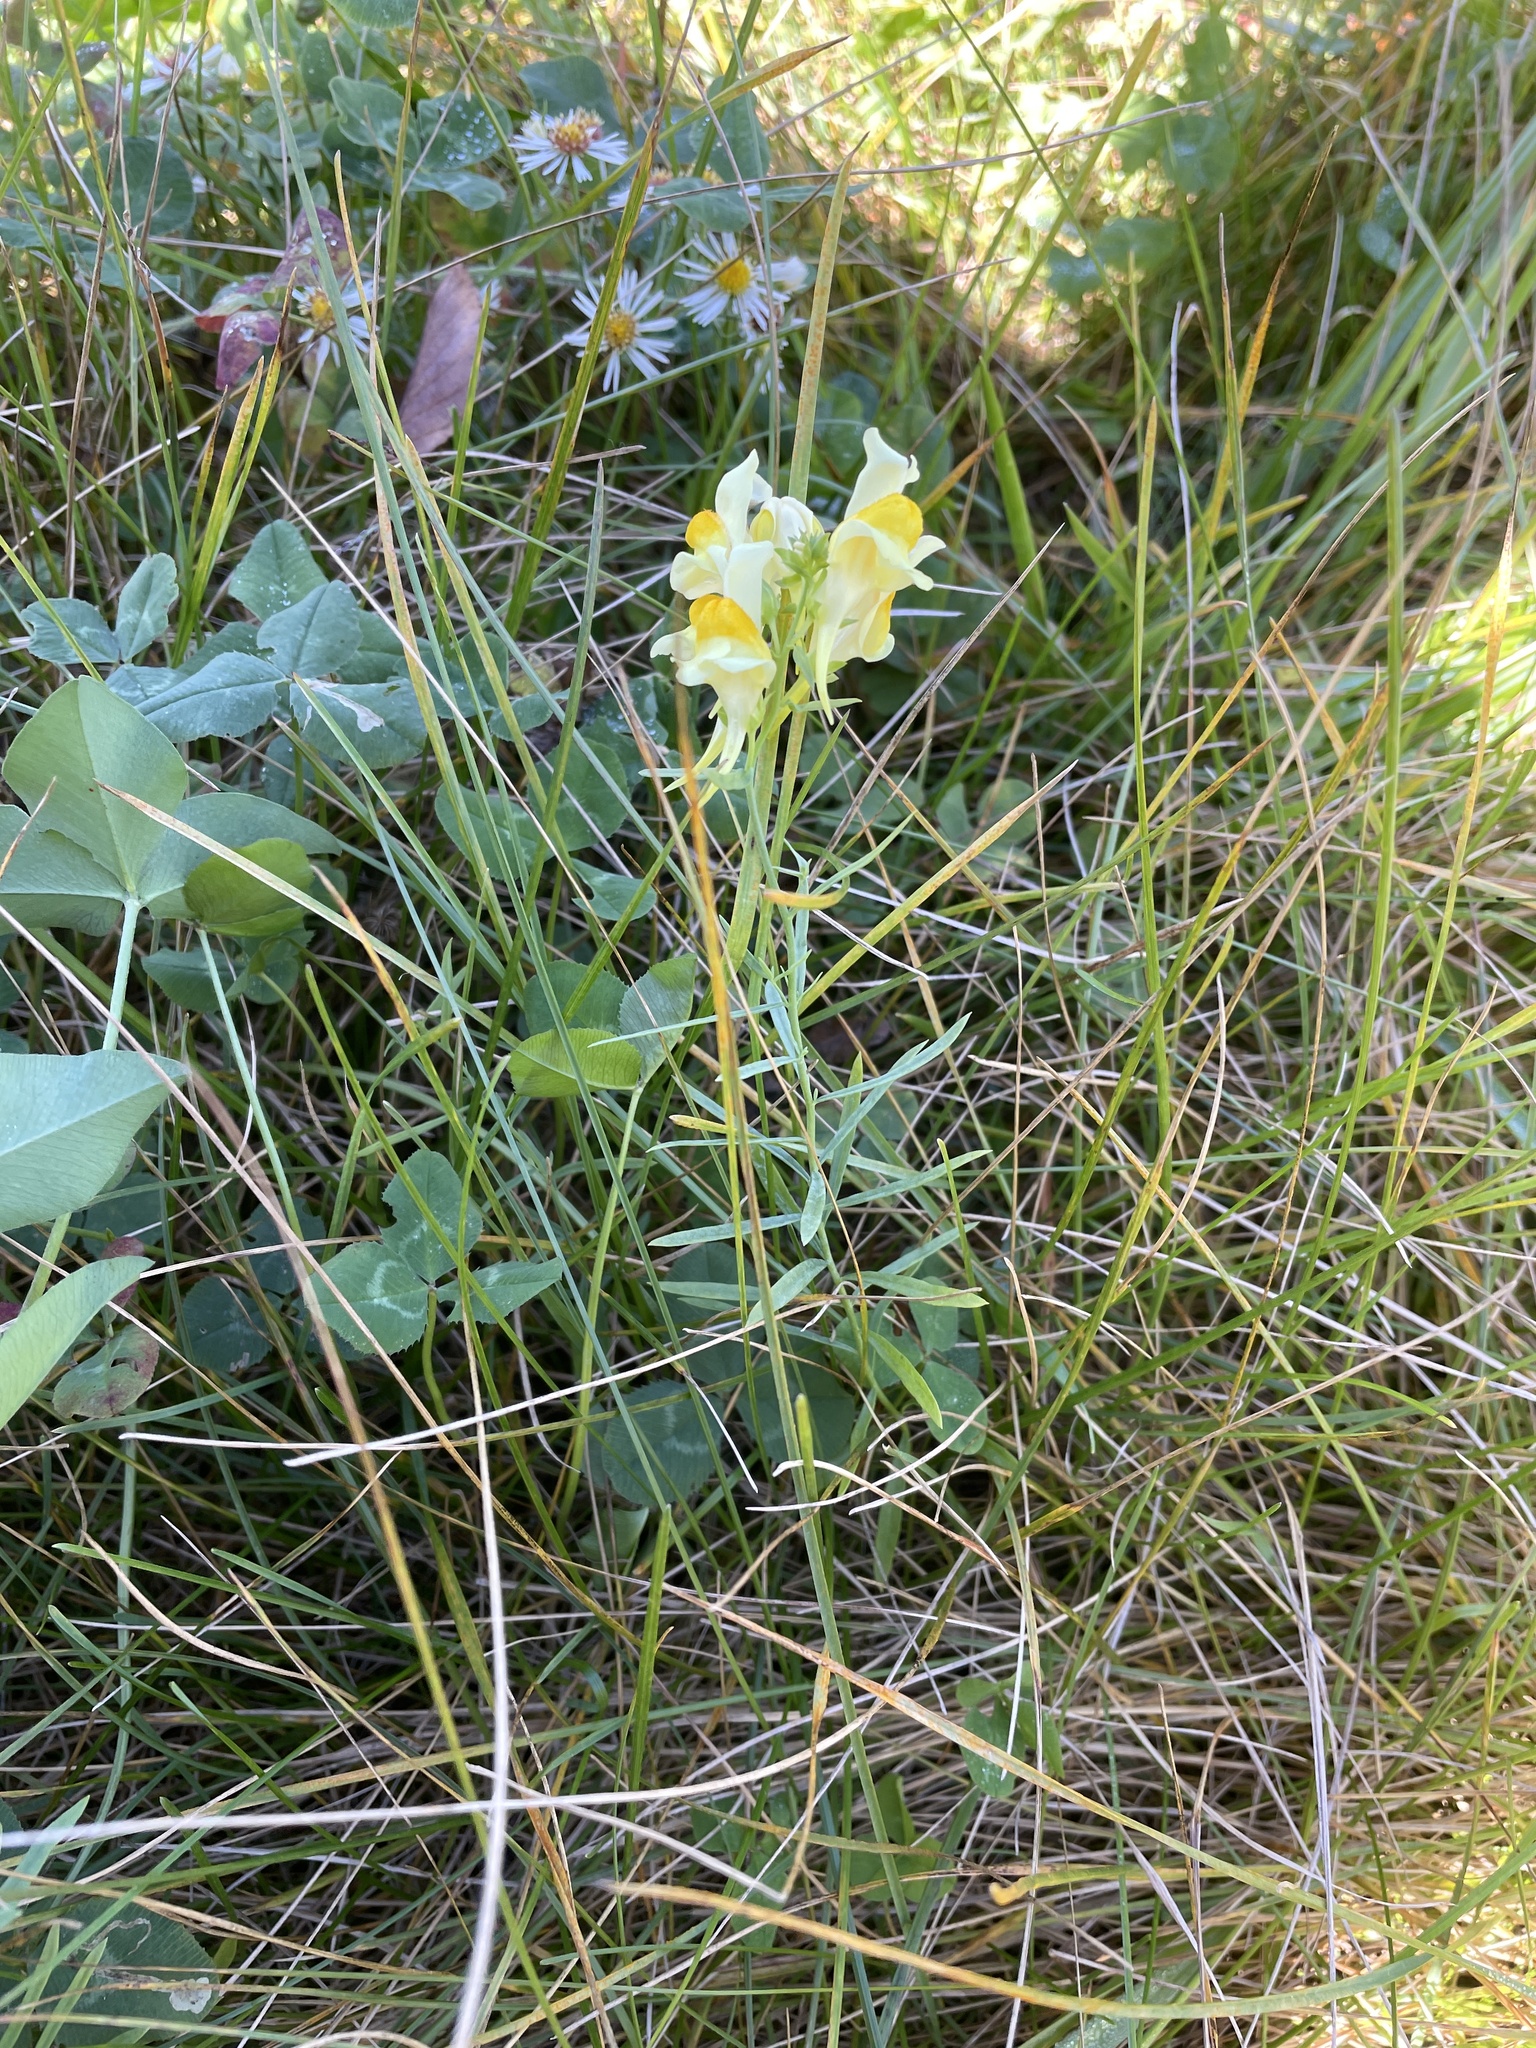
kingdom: Plantae
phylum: Tracheophyta
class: Magnoliopsida
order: Lamiales
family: Plantaginaceae
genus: Linaria
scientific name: Linaria vulgaris
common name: Butter and eggs
